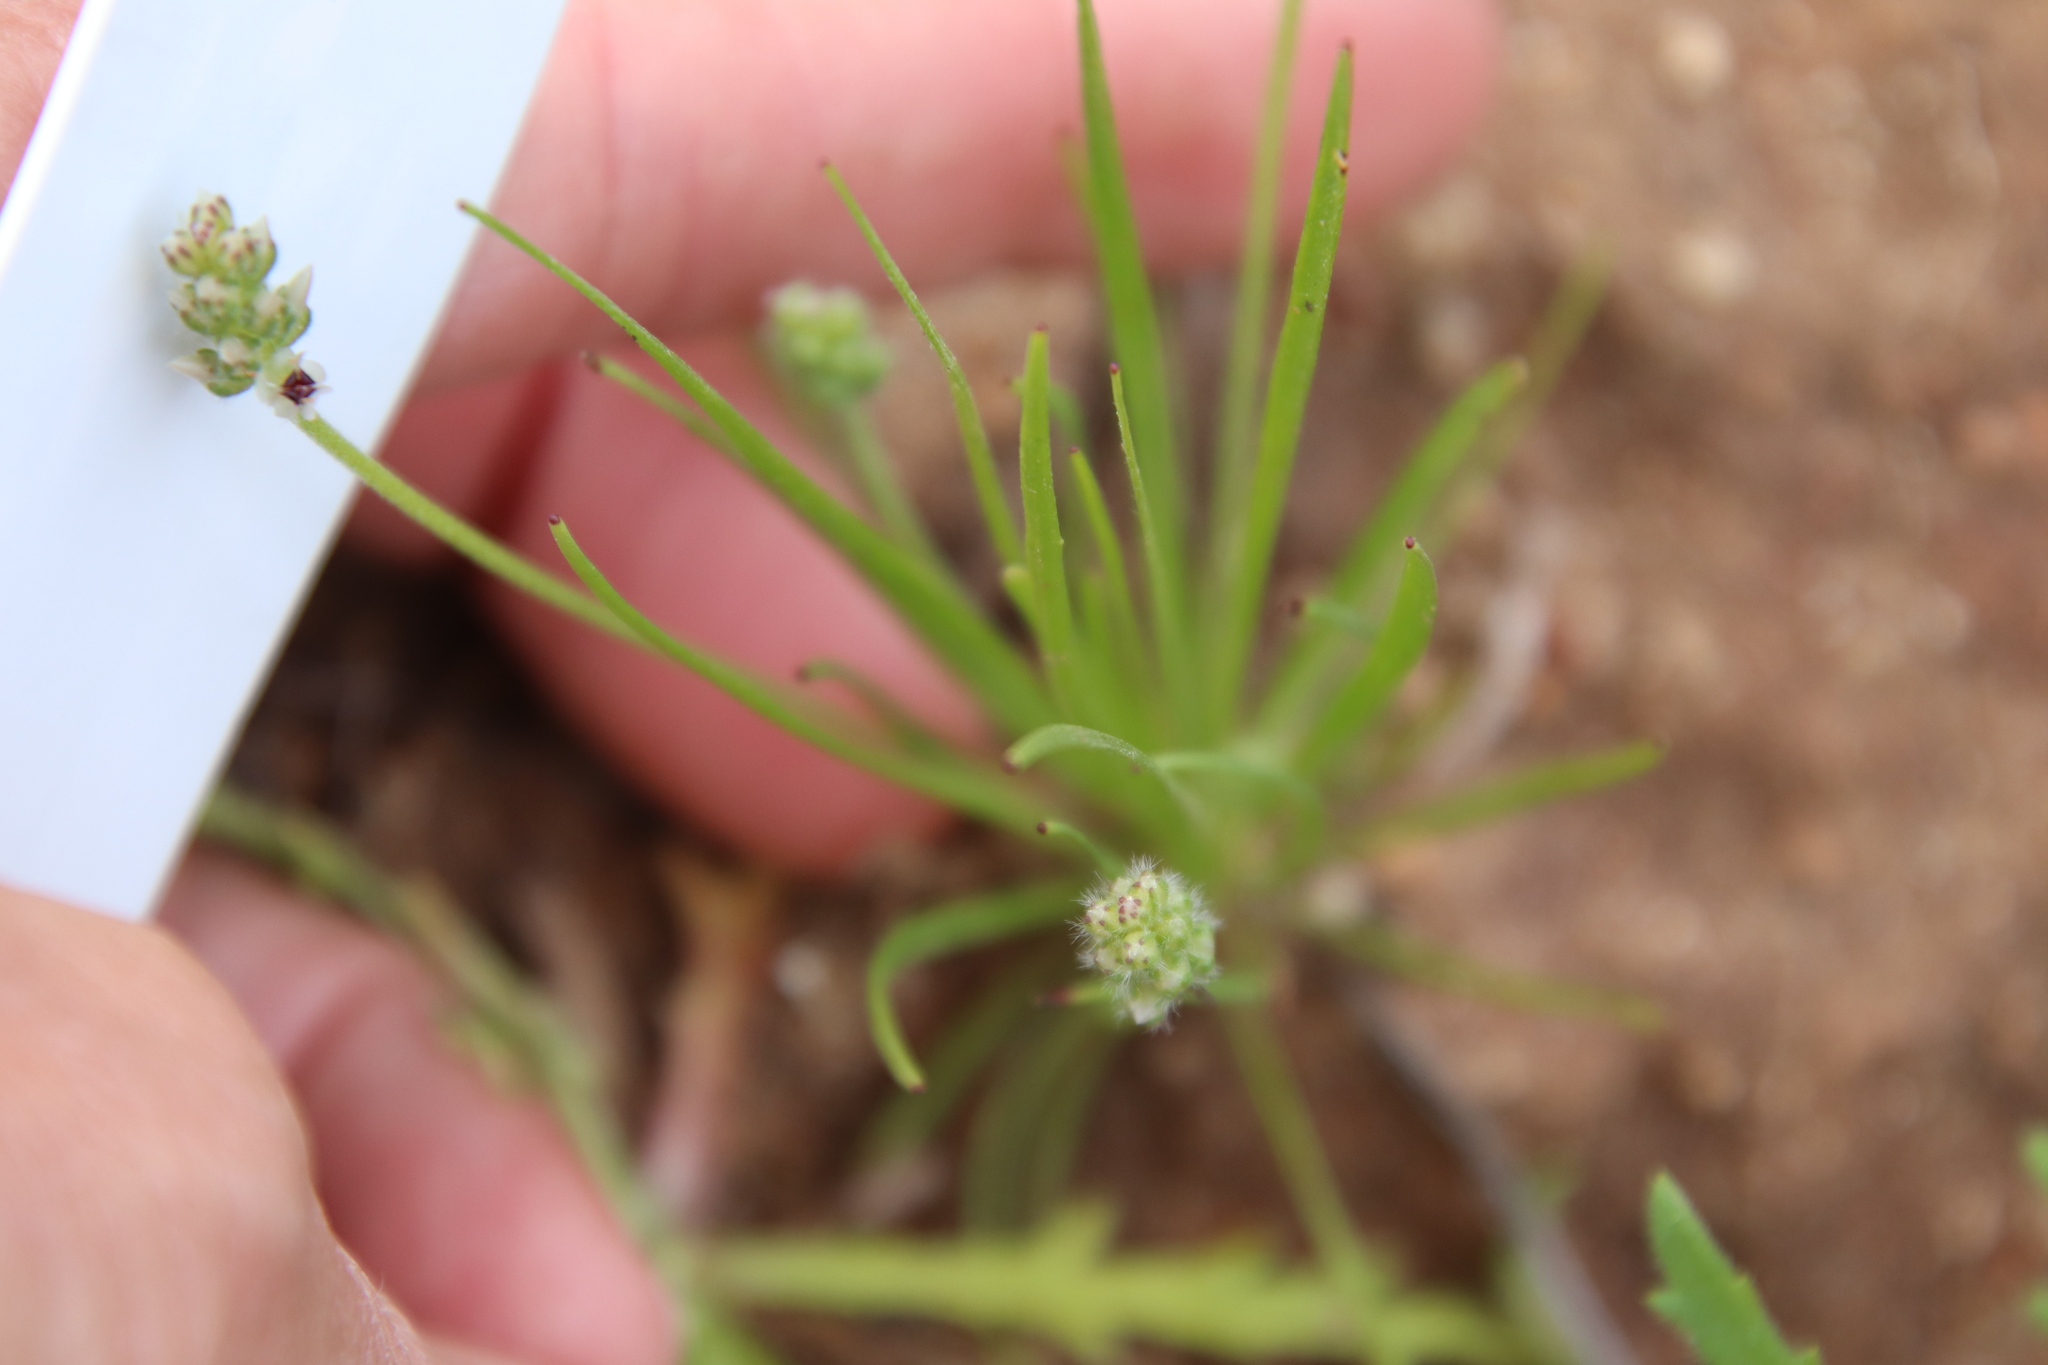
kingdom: Plantae
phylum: Tracheophyta
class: Magnoliopsida
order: Lamiales
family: Plantaginaceae
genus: Plantago
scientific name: Plantago erecta
